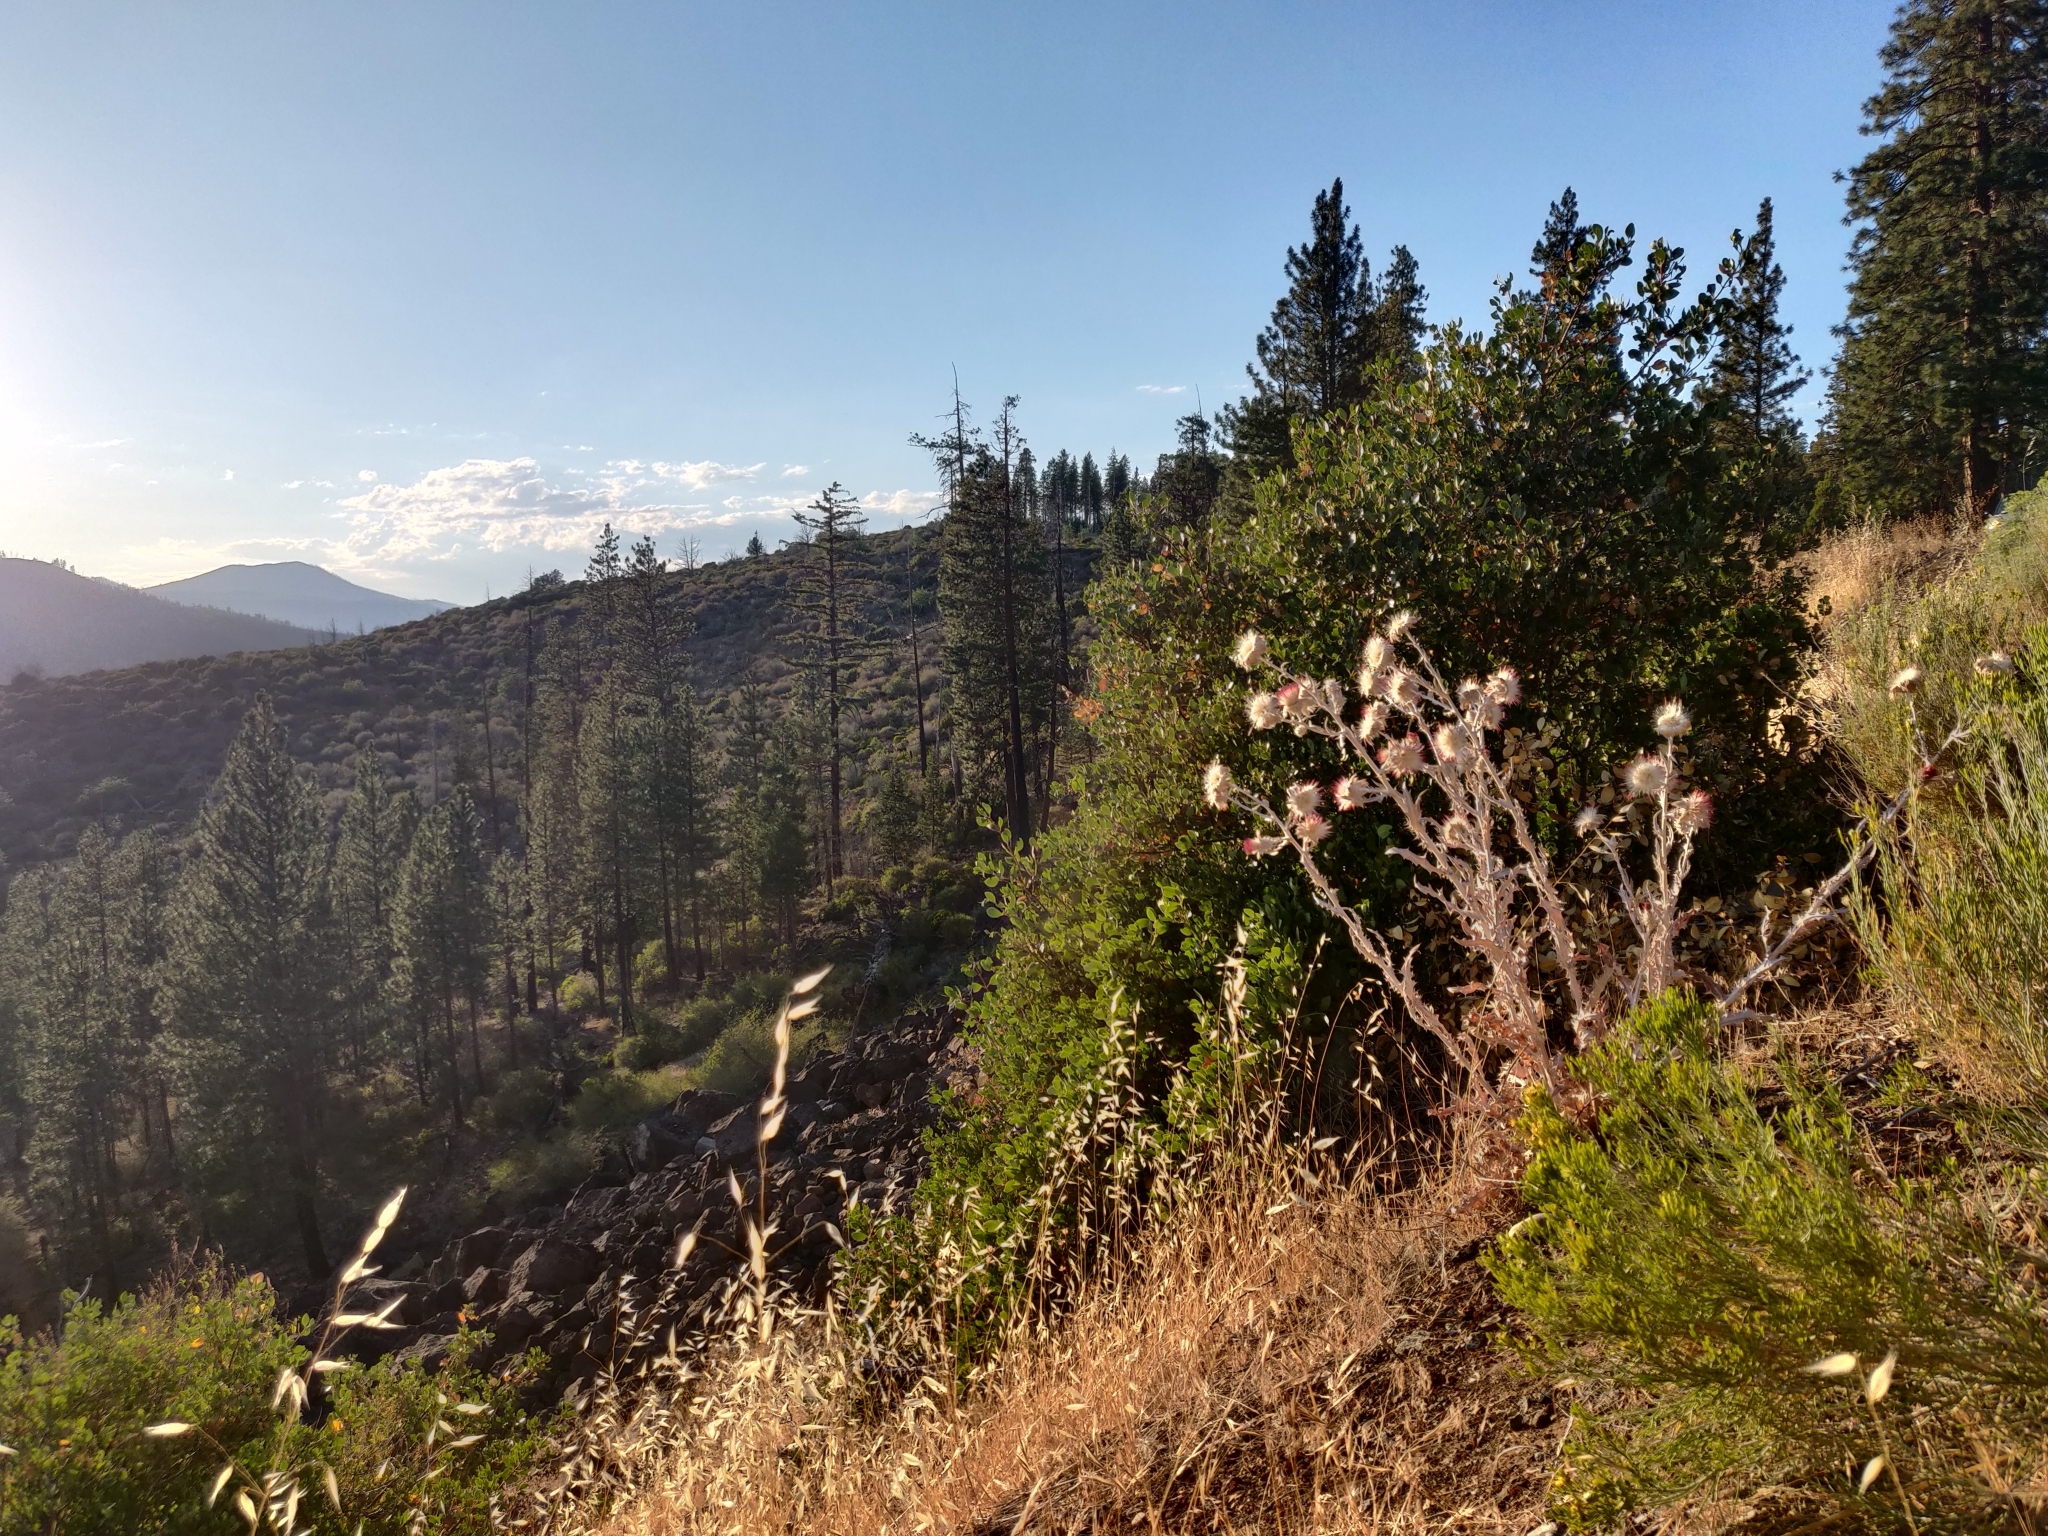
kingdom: Plantae
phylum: Tracheophyta
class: Magnoliopsida
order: Asterales
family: Asteraceae
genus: Cirsium
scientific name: Cirsium occidentale
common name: Western thistle
